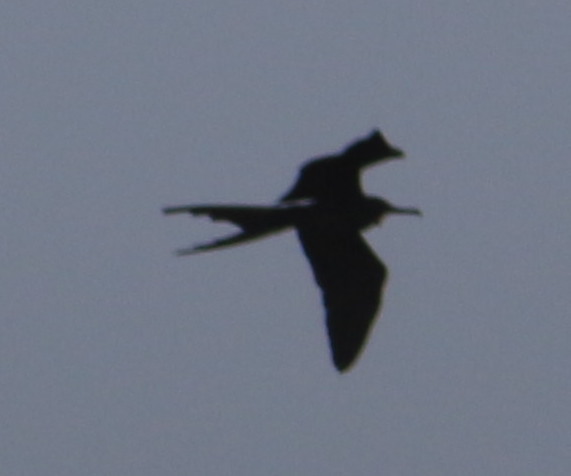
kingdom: Animalia
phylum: Chordata
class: Aves
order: Suliformes
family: Fregatidae
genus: Fregata
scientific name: Fregata magnificens
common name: Magnificent frigatebird
